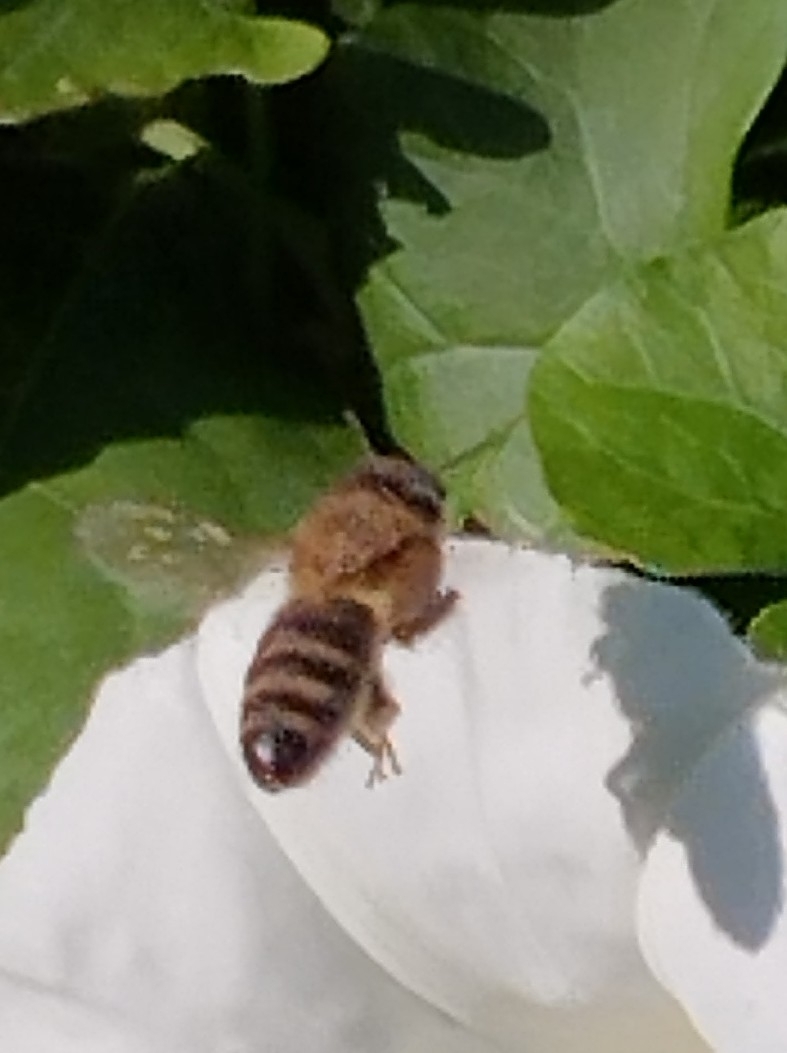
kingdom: Animalia
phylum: Arthropoda
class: Insecta
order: Hymenoptera
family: Apidae
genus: Apis
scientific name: Apis mellifera
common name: Honey bee
